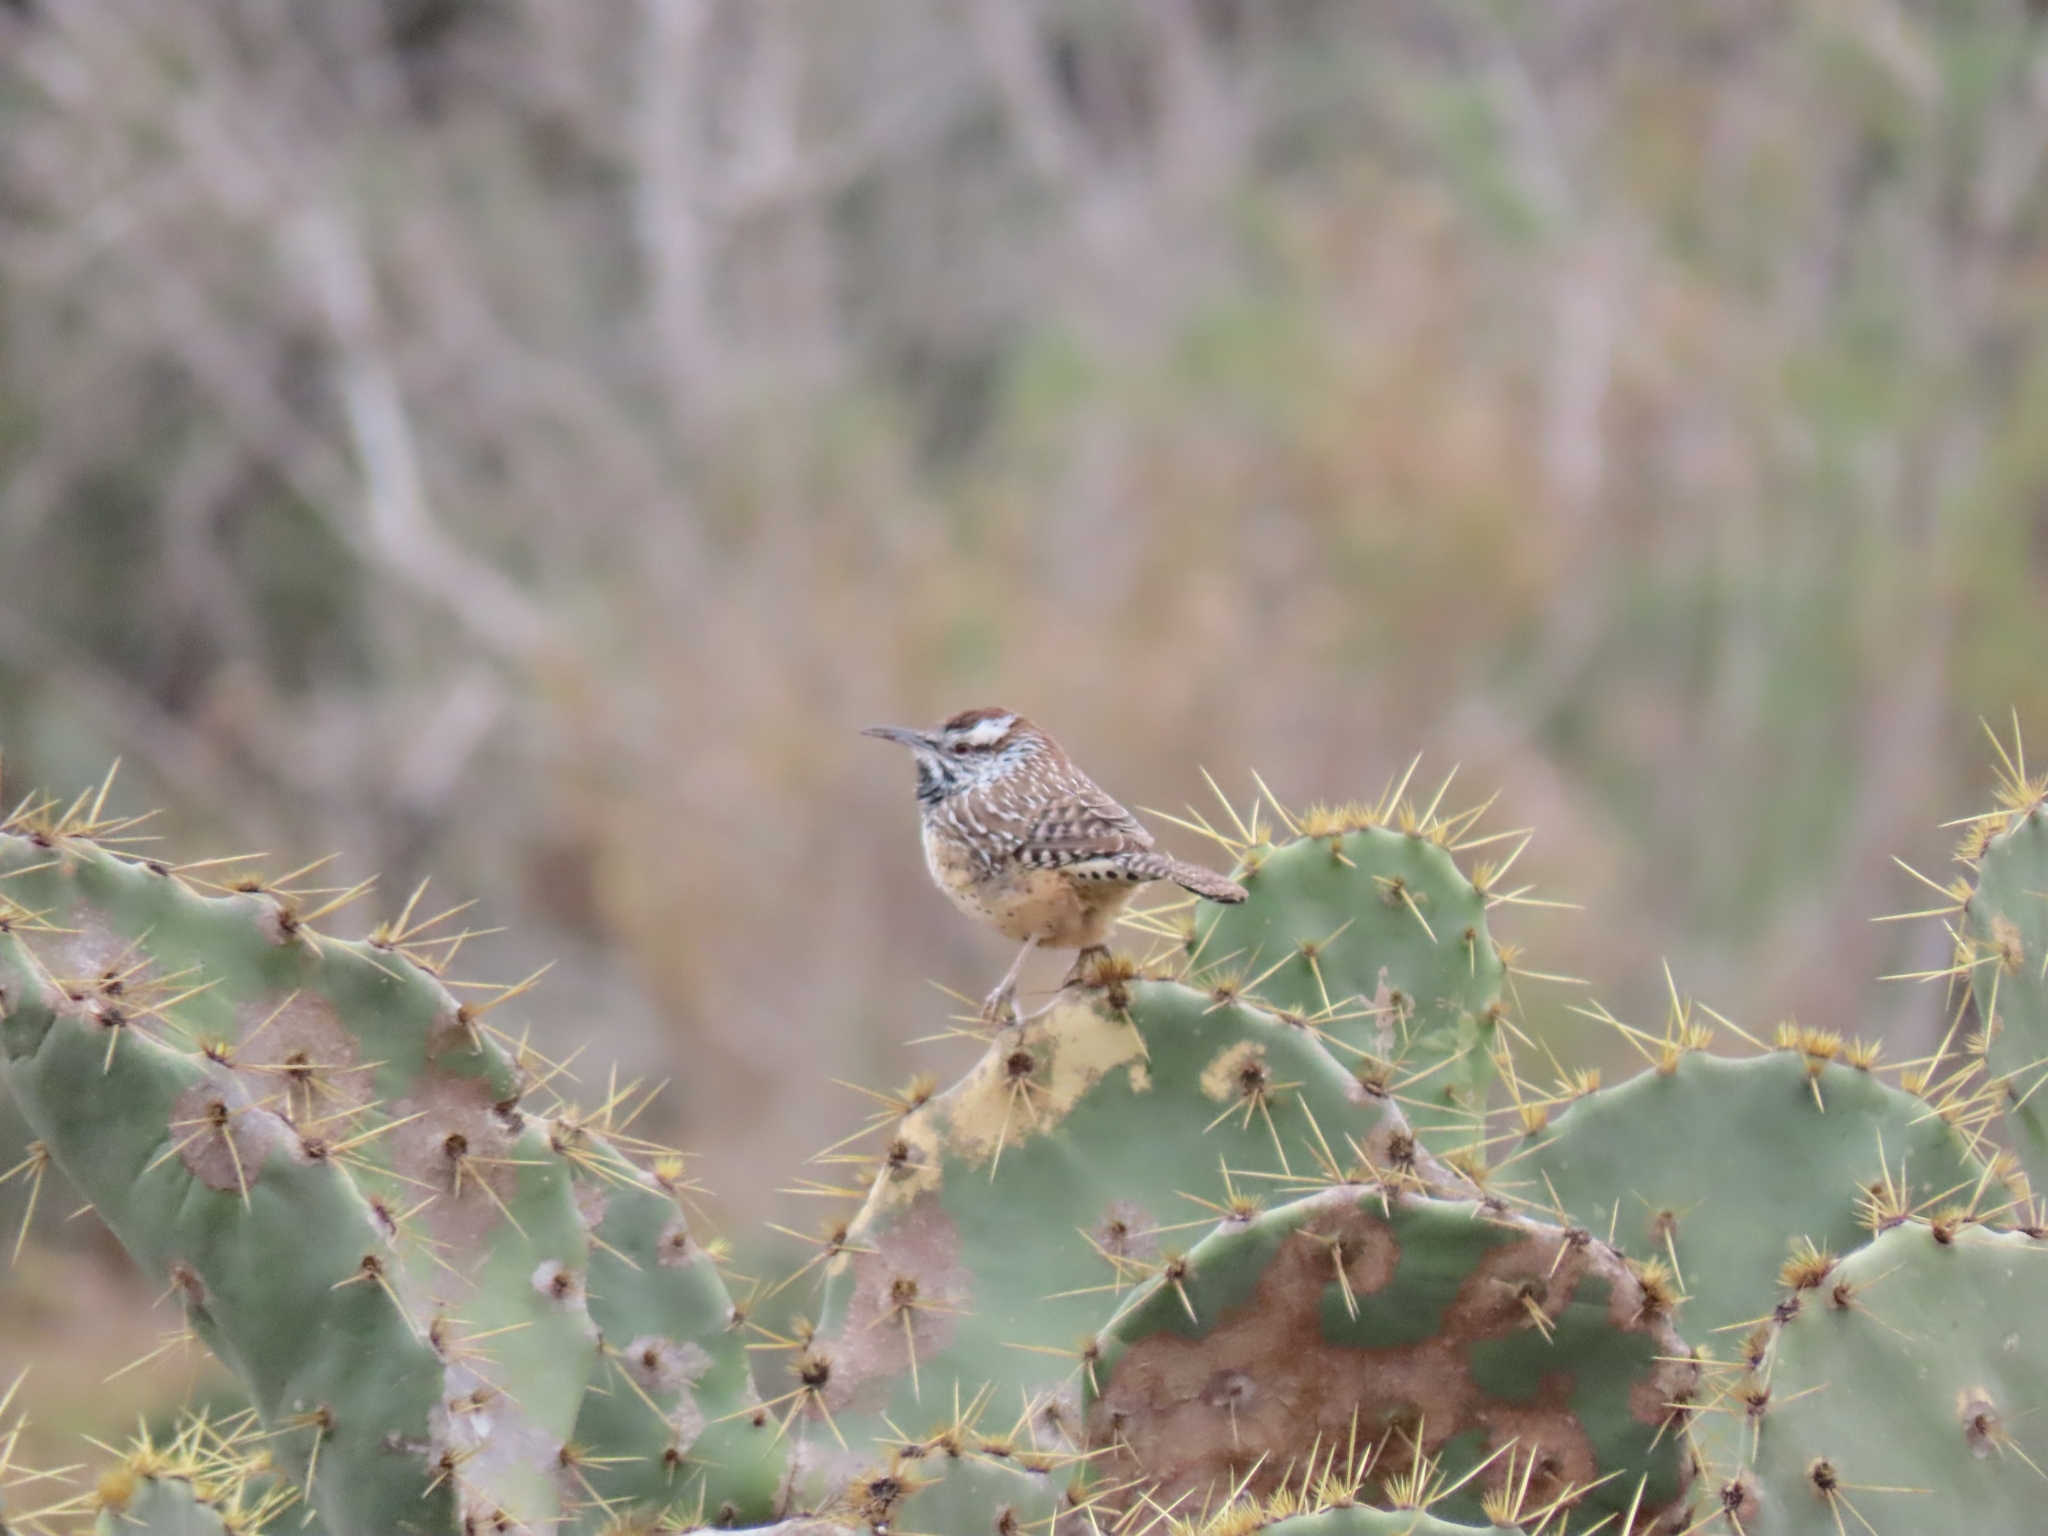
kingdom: Animalia
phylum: Chordata
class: Aves
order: Passeriformes
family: Troglodytidae
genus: Campylorhynchus
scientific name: Campylorhynchus brunneicapillus
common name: Cactus wren
